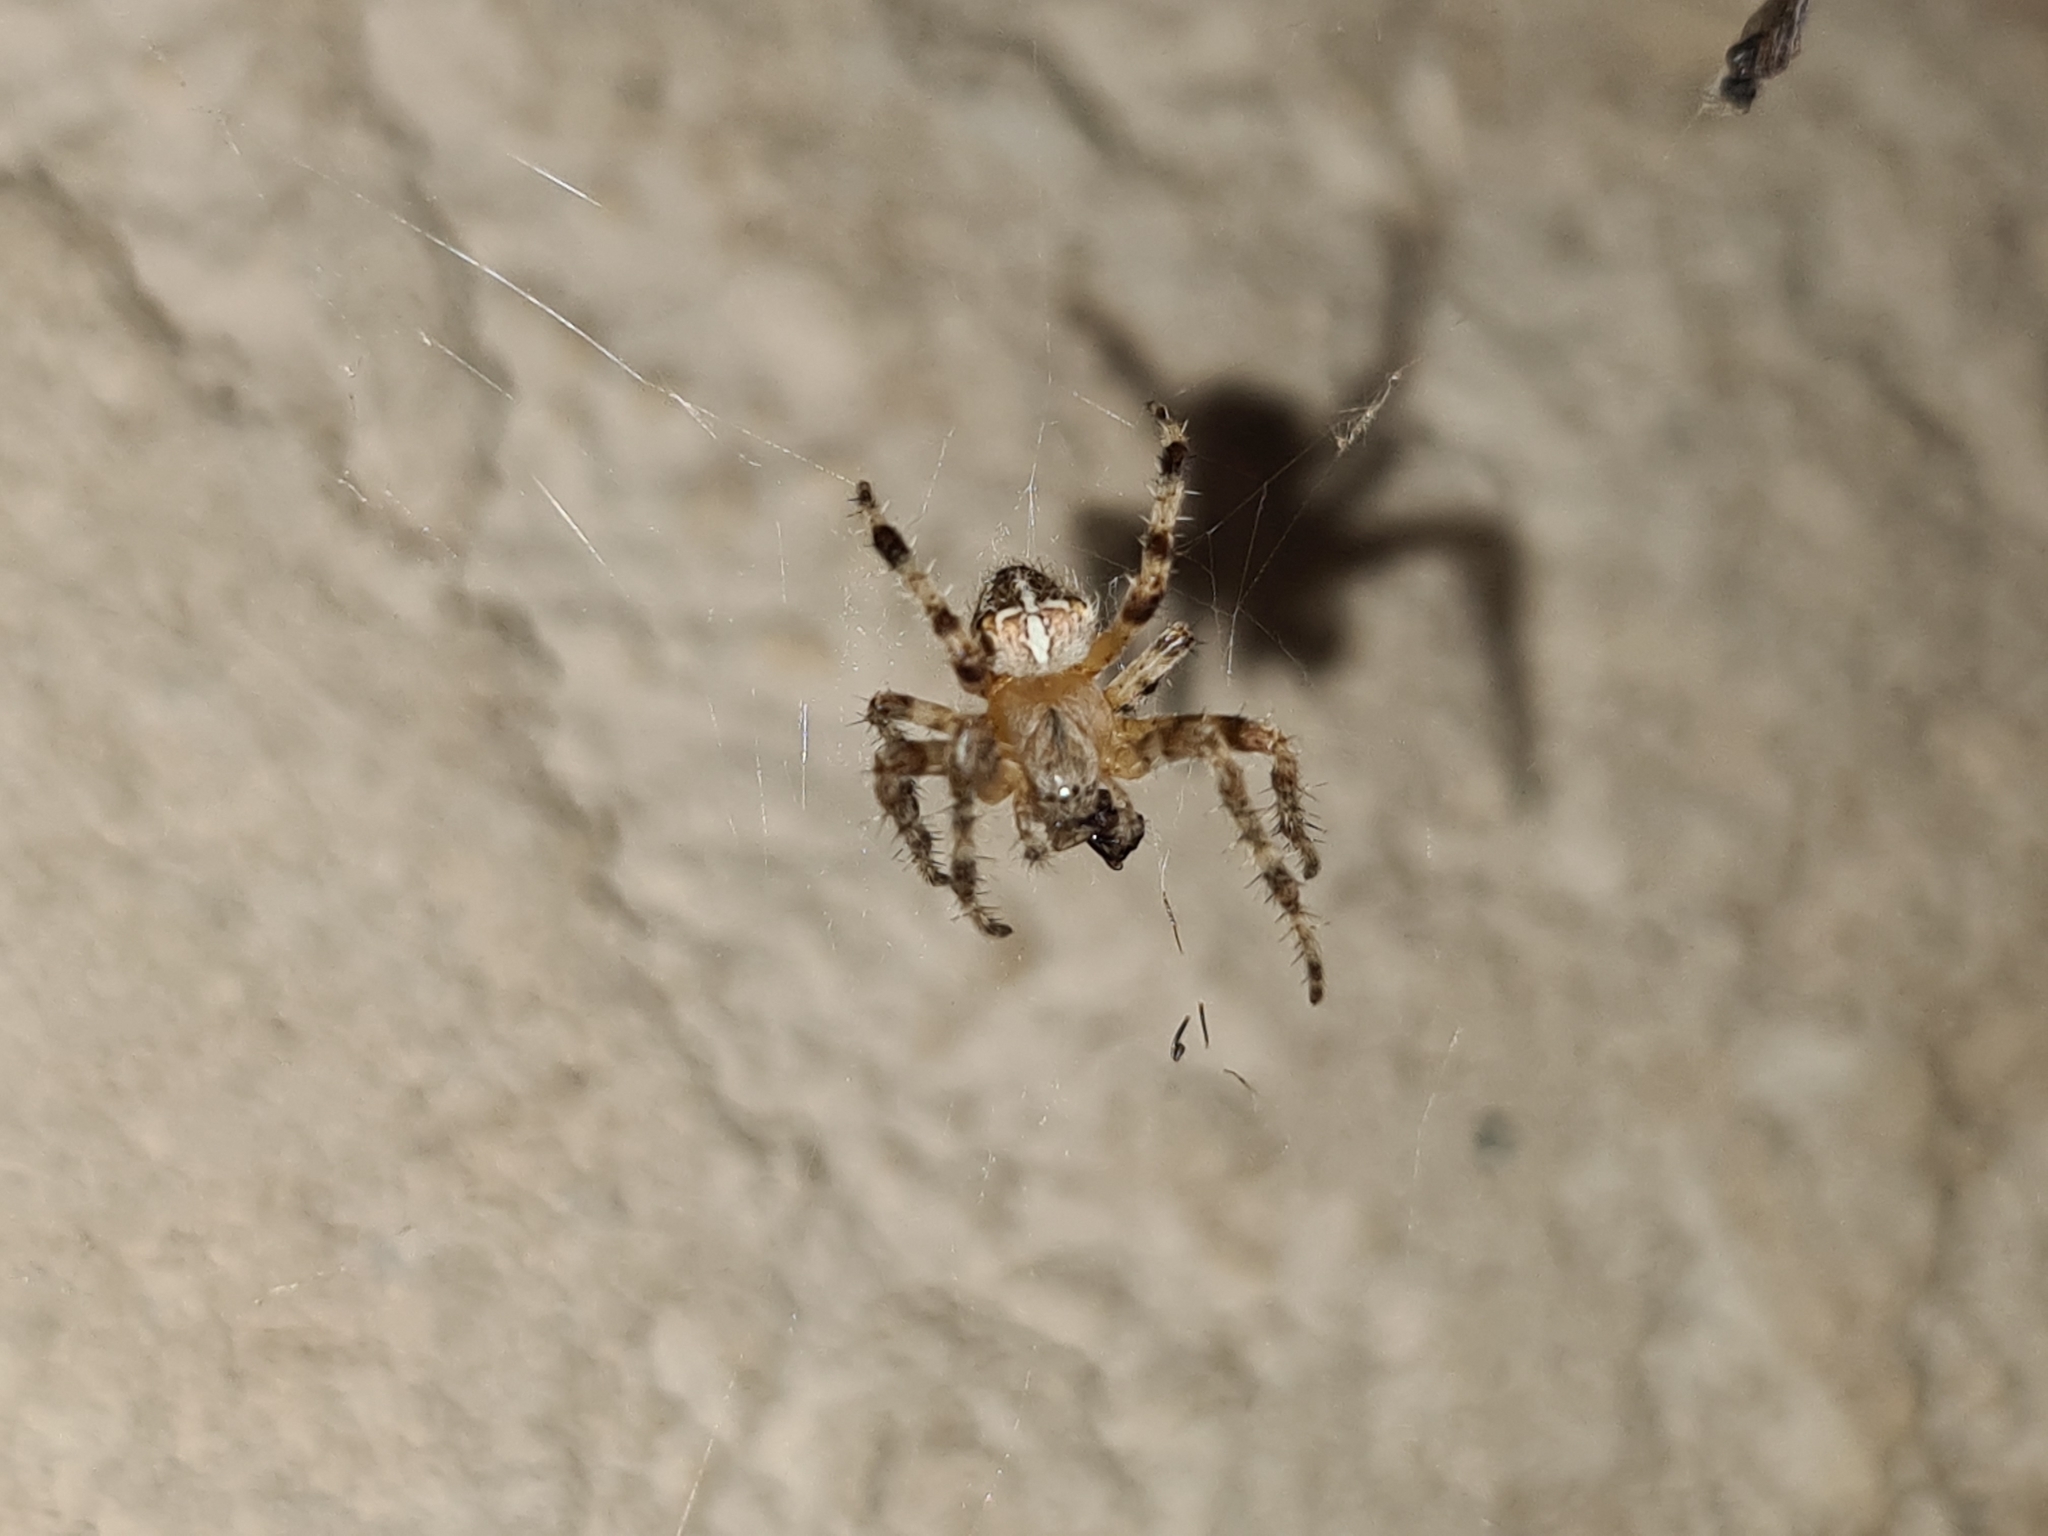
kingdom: Animalia
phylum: Arthropoda
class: Arachnida
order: Araneae
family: Araneidae
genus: Araneus
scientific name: Araneus diadematus
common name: Cross orbweaver
